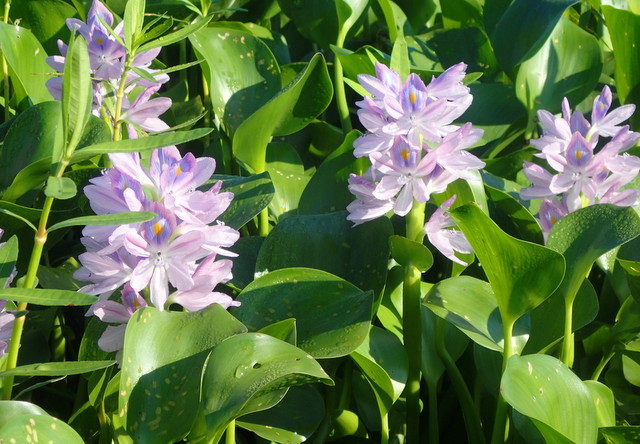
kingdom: Plantae
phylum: Tracheophyta
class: Liliopsida
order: Commelinales
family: Pontederiaceae
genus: Pontederia
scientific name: Pontederia crassipes
